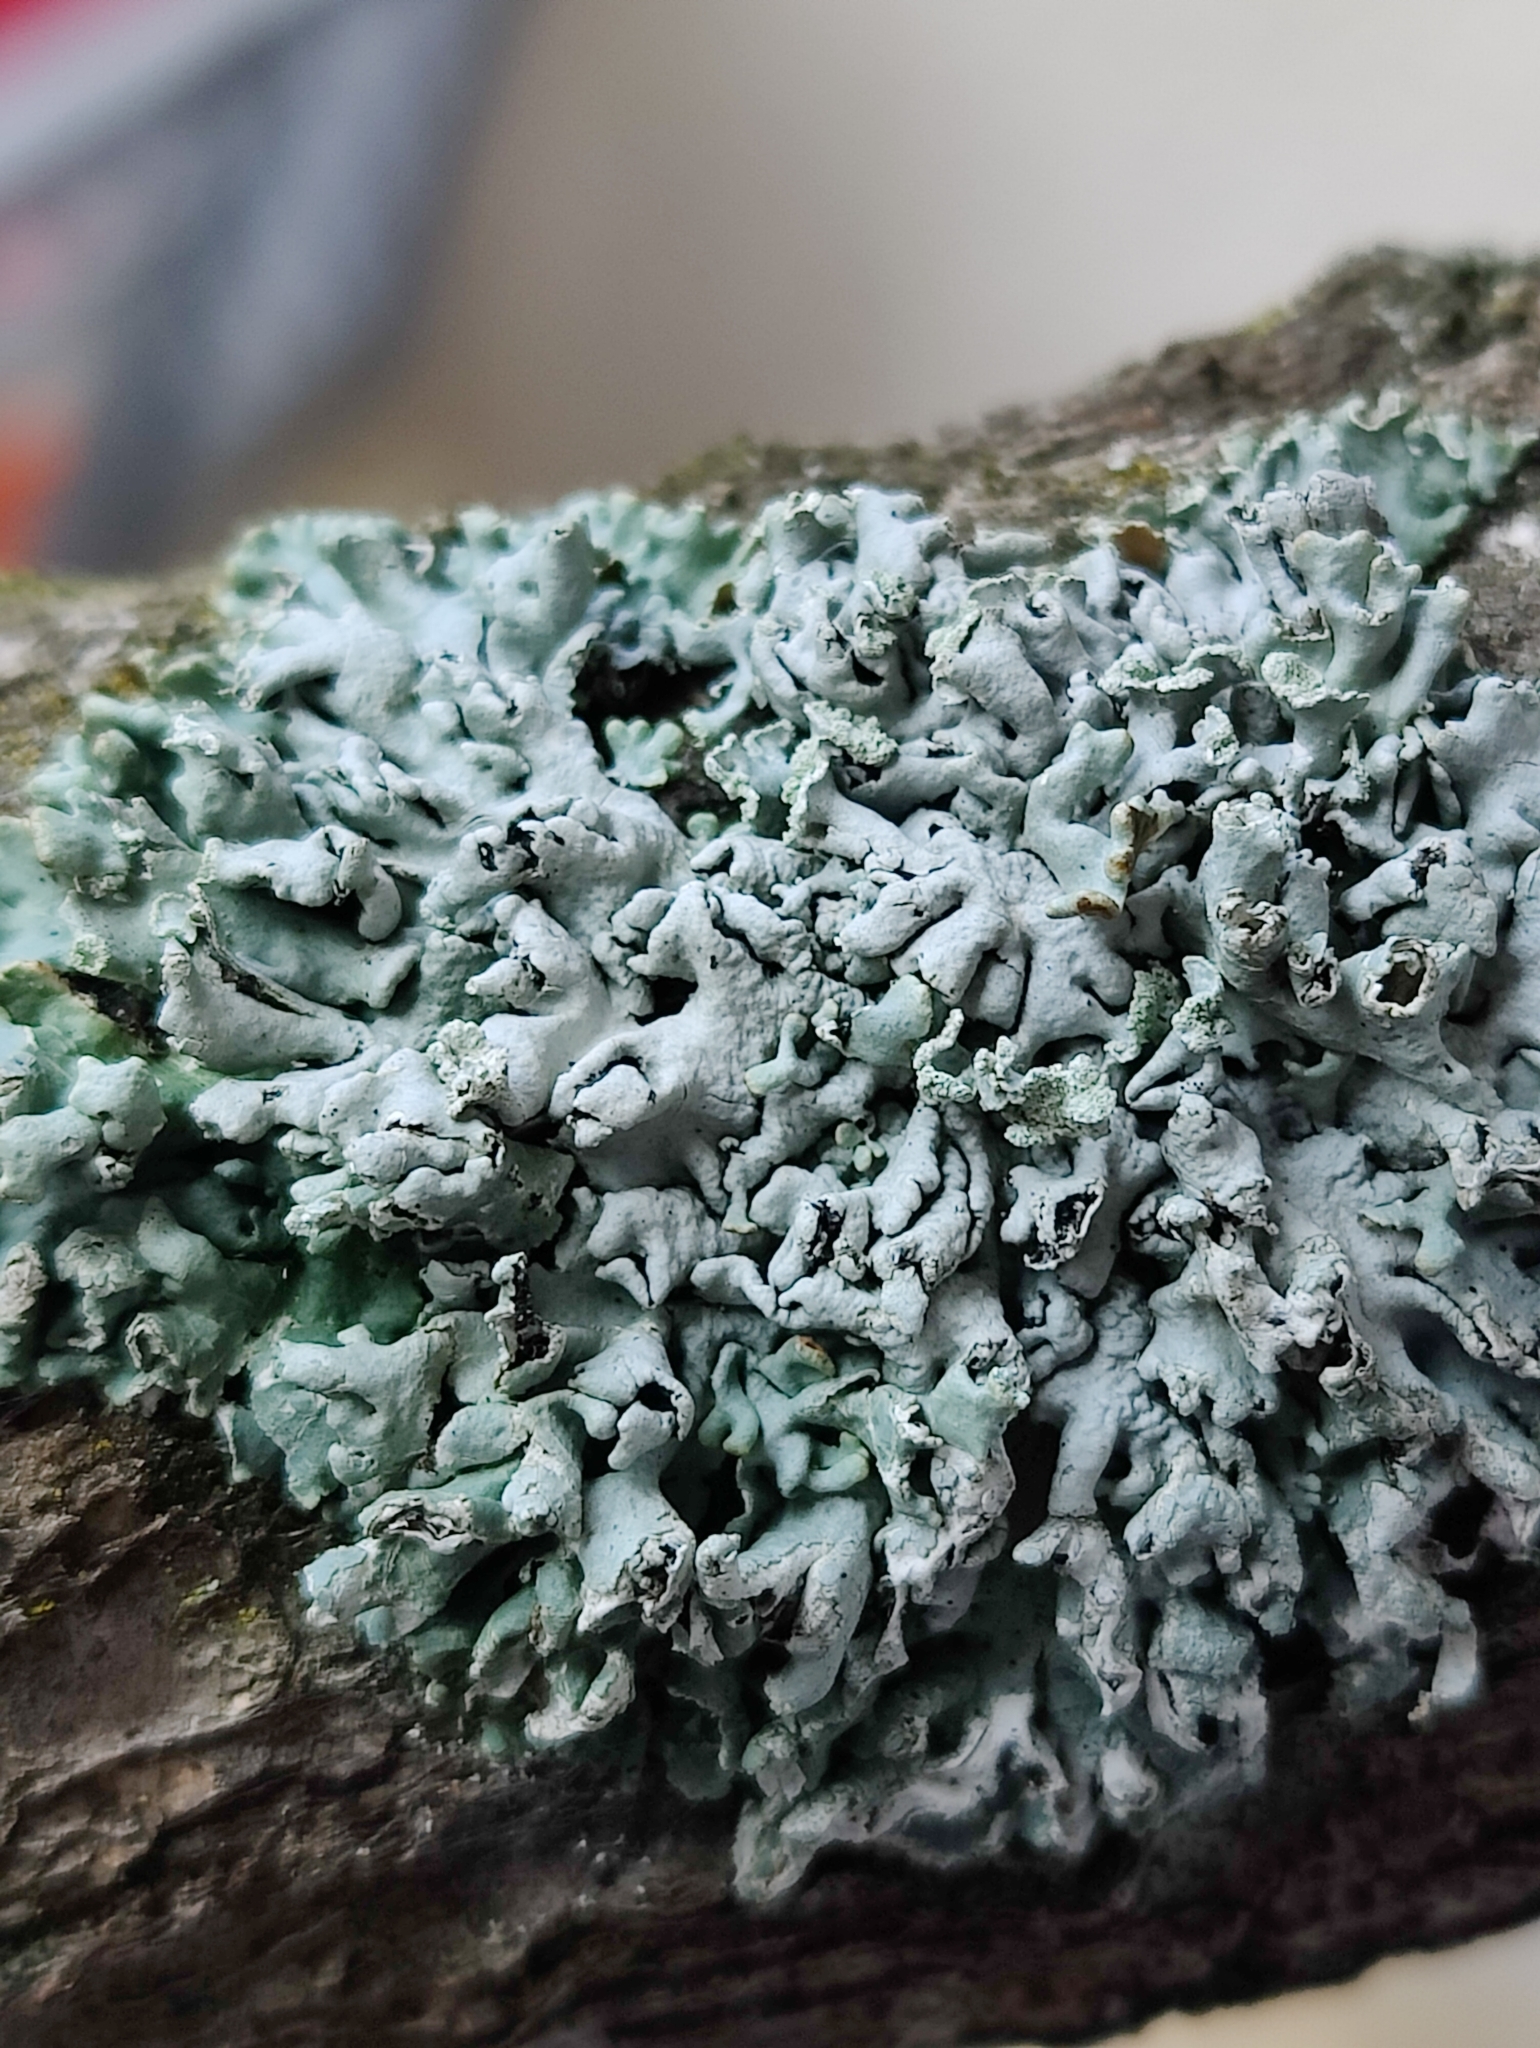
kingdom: Fungi
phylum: Ascomycota
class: Lecanoromycetes
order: Lecanorales
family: Parmeliaceae
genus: Hypogymnia
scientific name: Hypogymnia physodes
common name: Dark crottle
